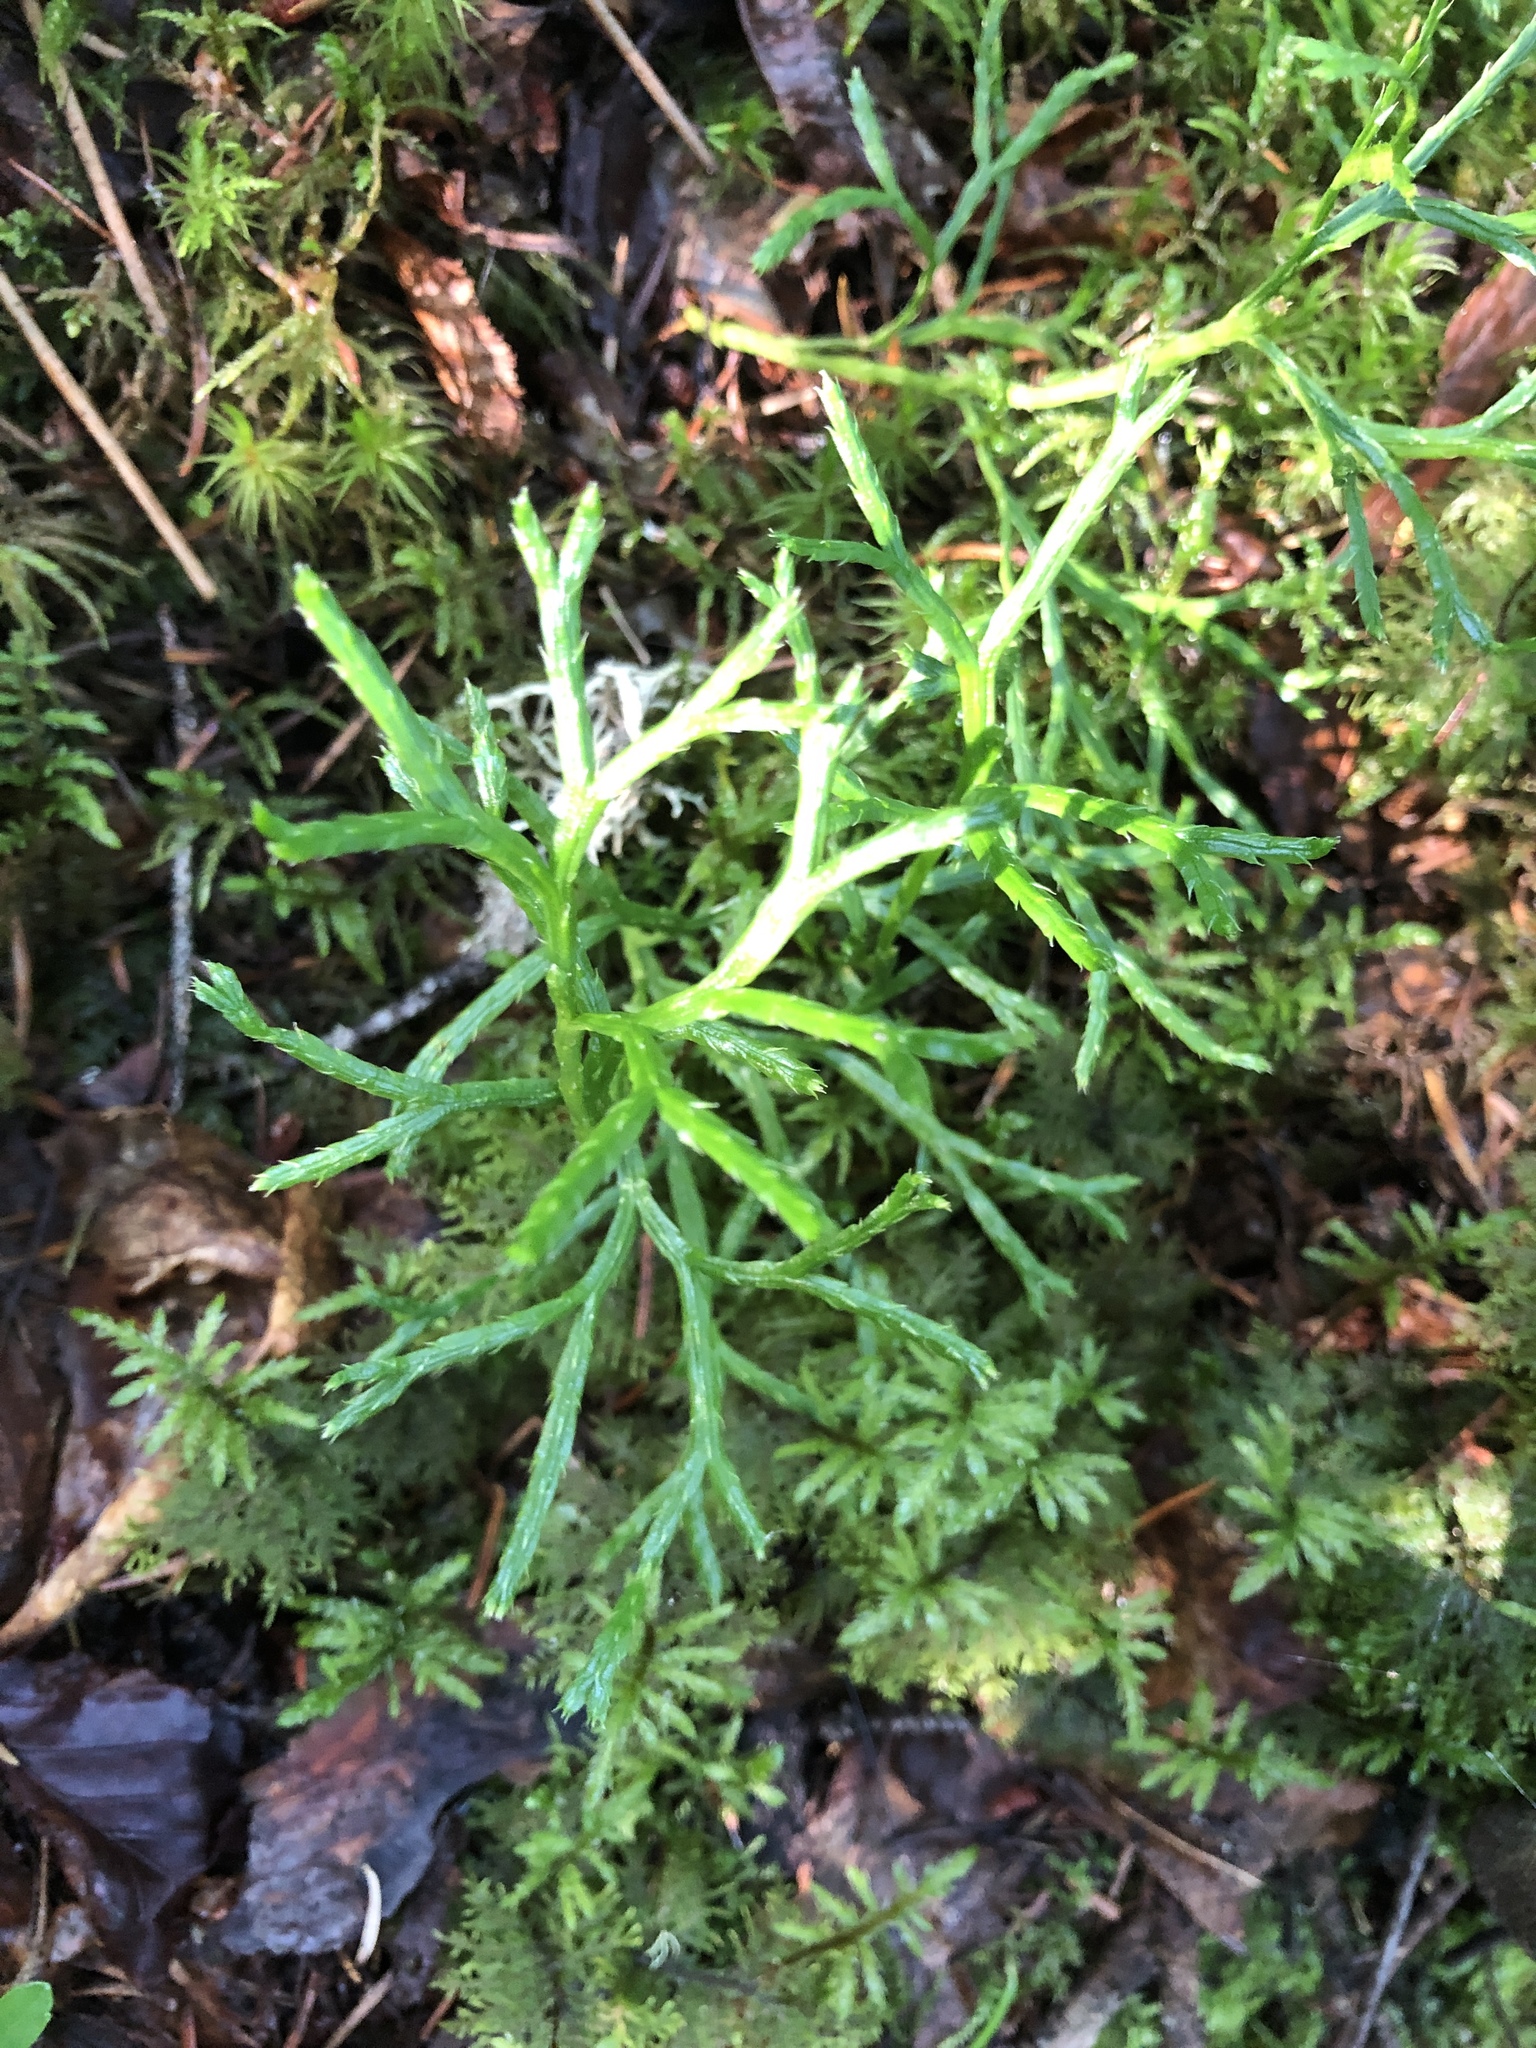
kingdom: Plantae
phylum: Tracheophyta
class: Lycopodiopsida
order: Lycopodiales
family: Lycopodiaceae
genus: Diphasiastrum
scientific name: Diphasiastrum complanatum
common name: Northern running-pine
